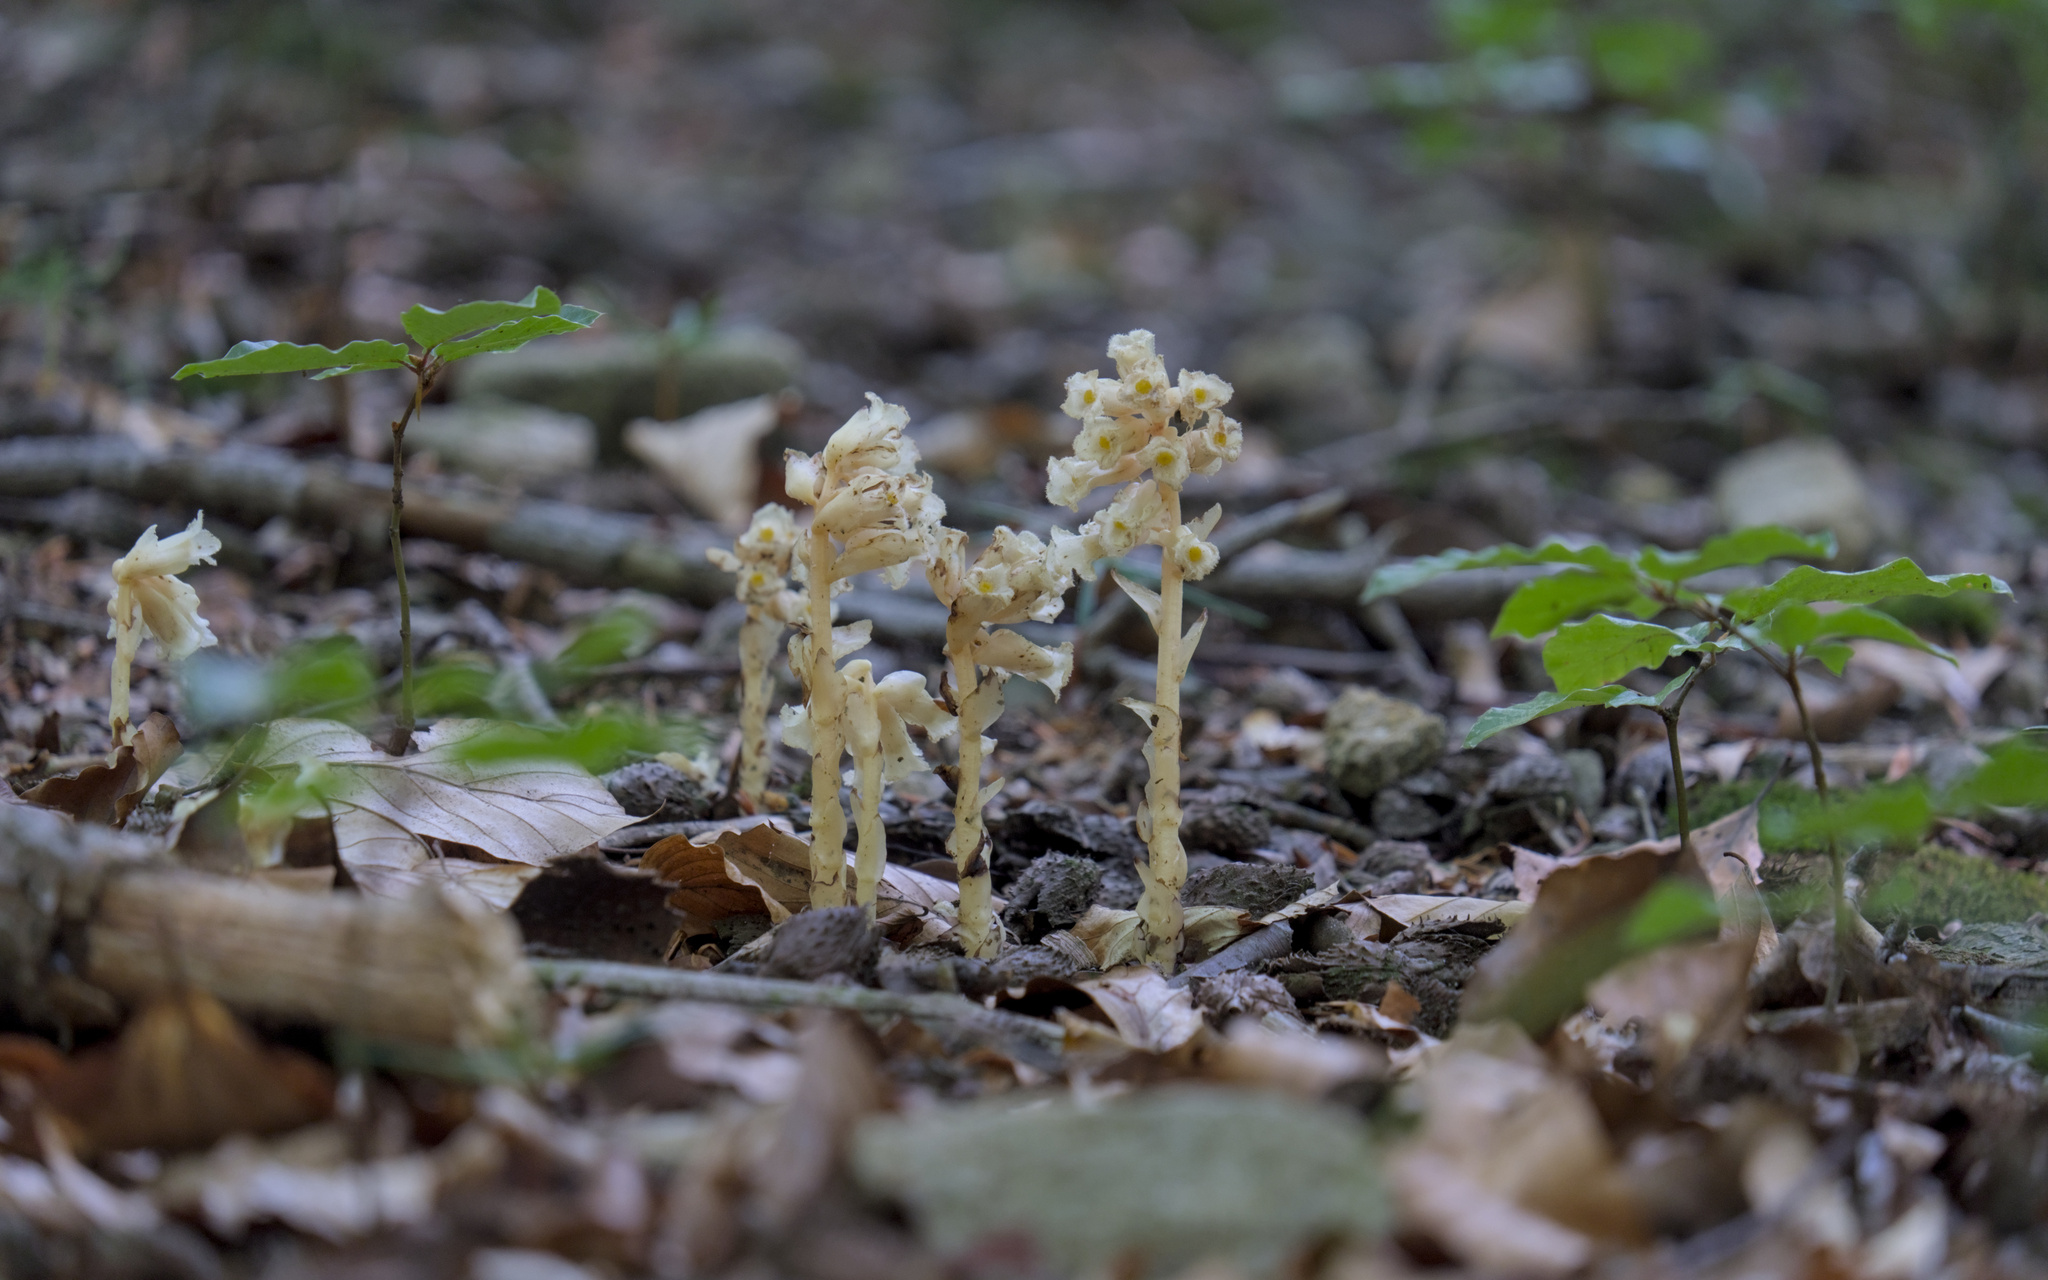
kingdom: Plantae
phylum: Tracheophyta
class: Magnoliopsida
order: Ericales
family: Ericaceae
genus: Hypopitys
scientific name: Hypopitys monotropa
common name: Yellow bird's-nest
